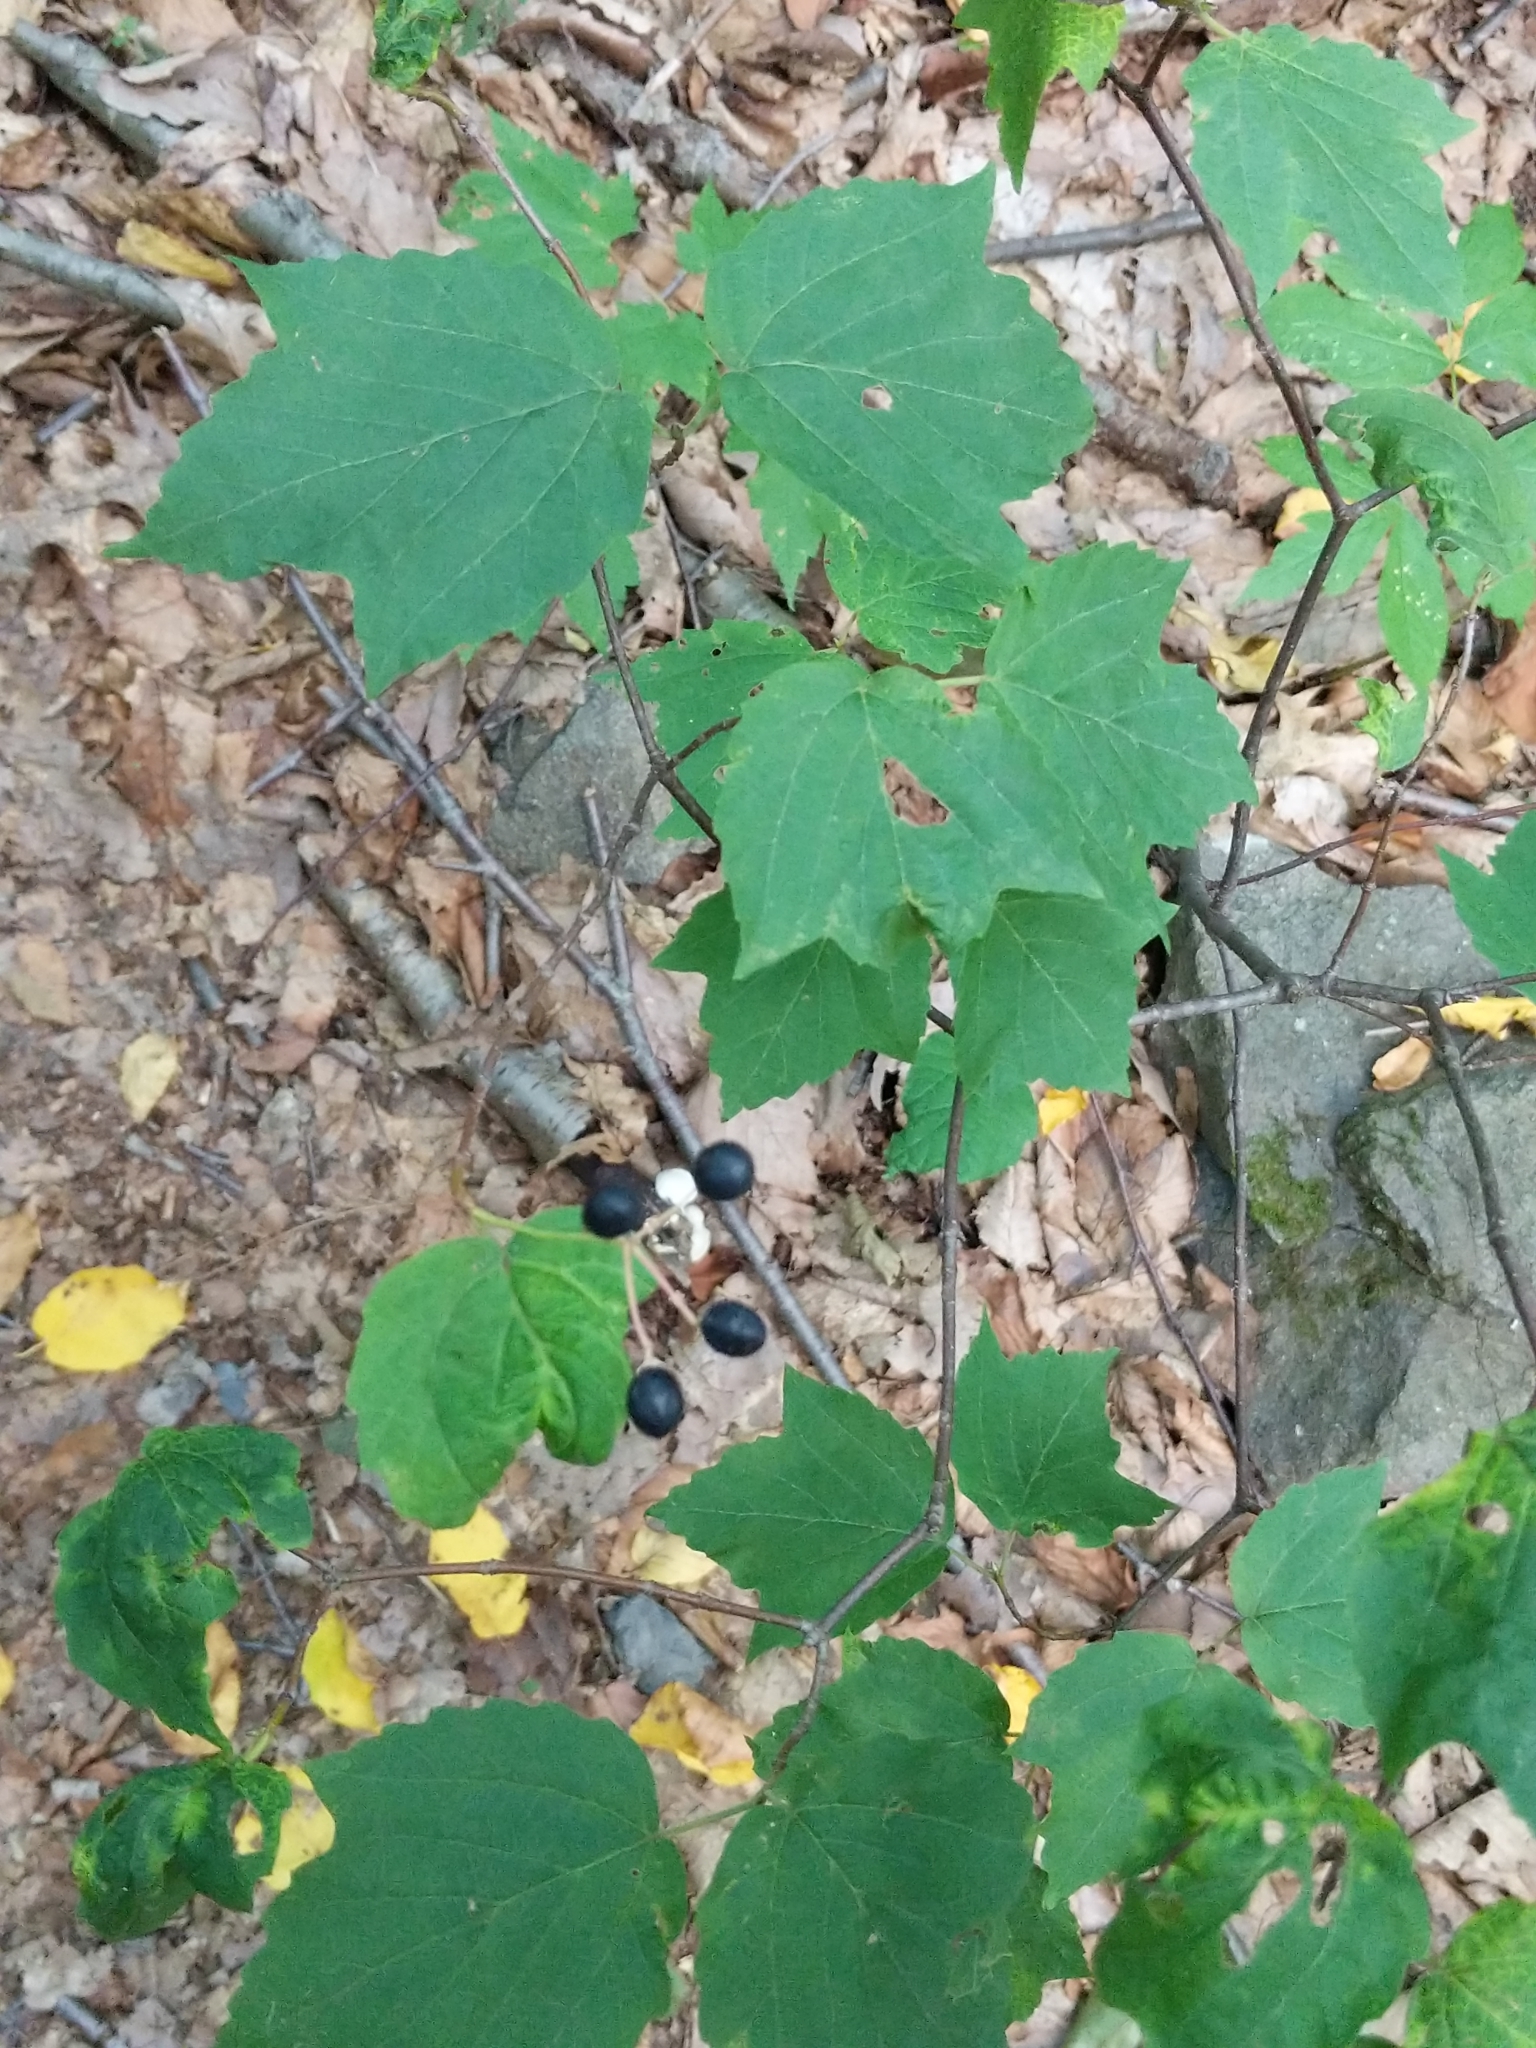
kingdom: Plantae
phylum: Tracheophyta
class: Magnoliopsida
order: Dipsacales
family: Viburnaceae
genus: Viburnum
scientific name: Viburnum acerifolium
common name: Dockmackie
